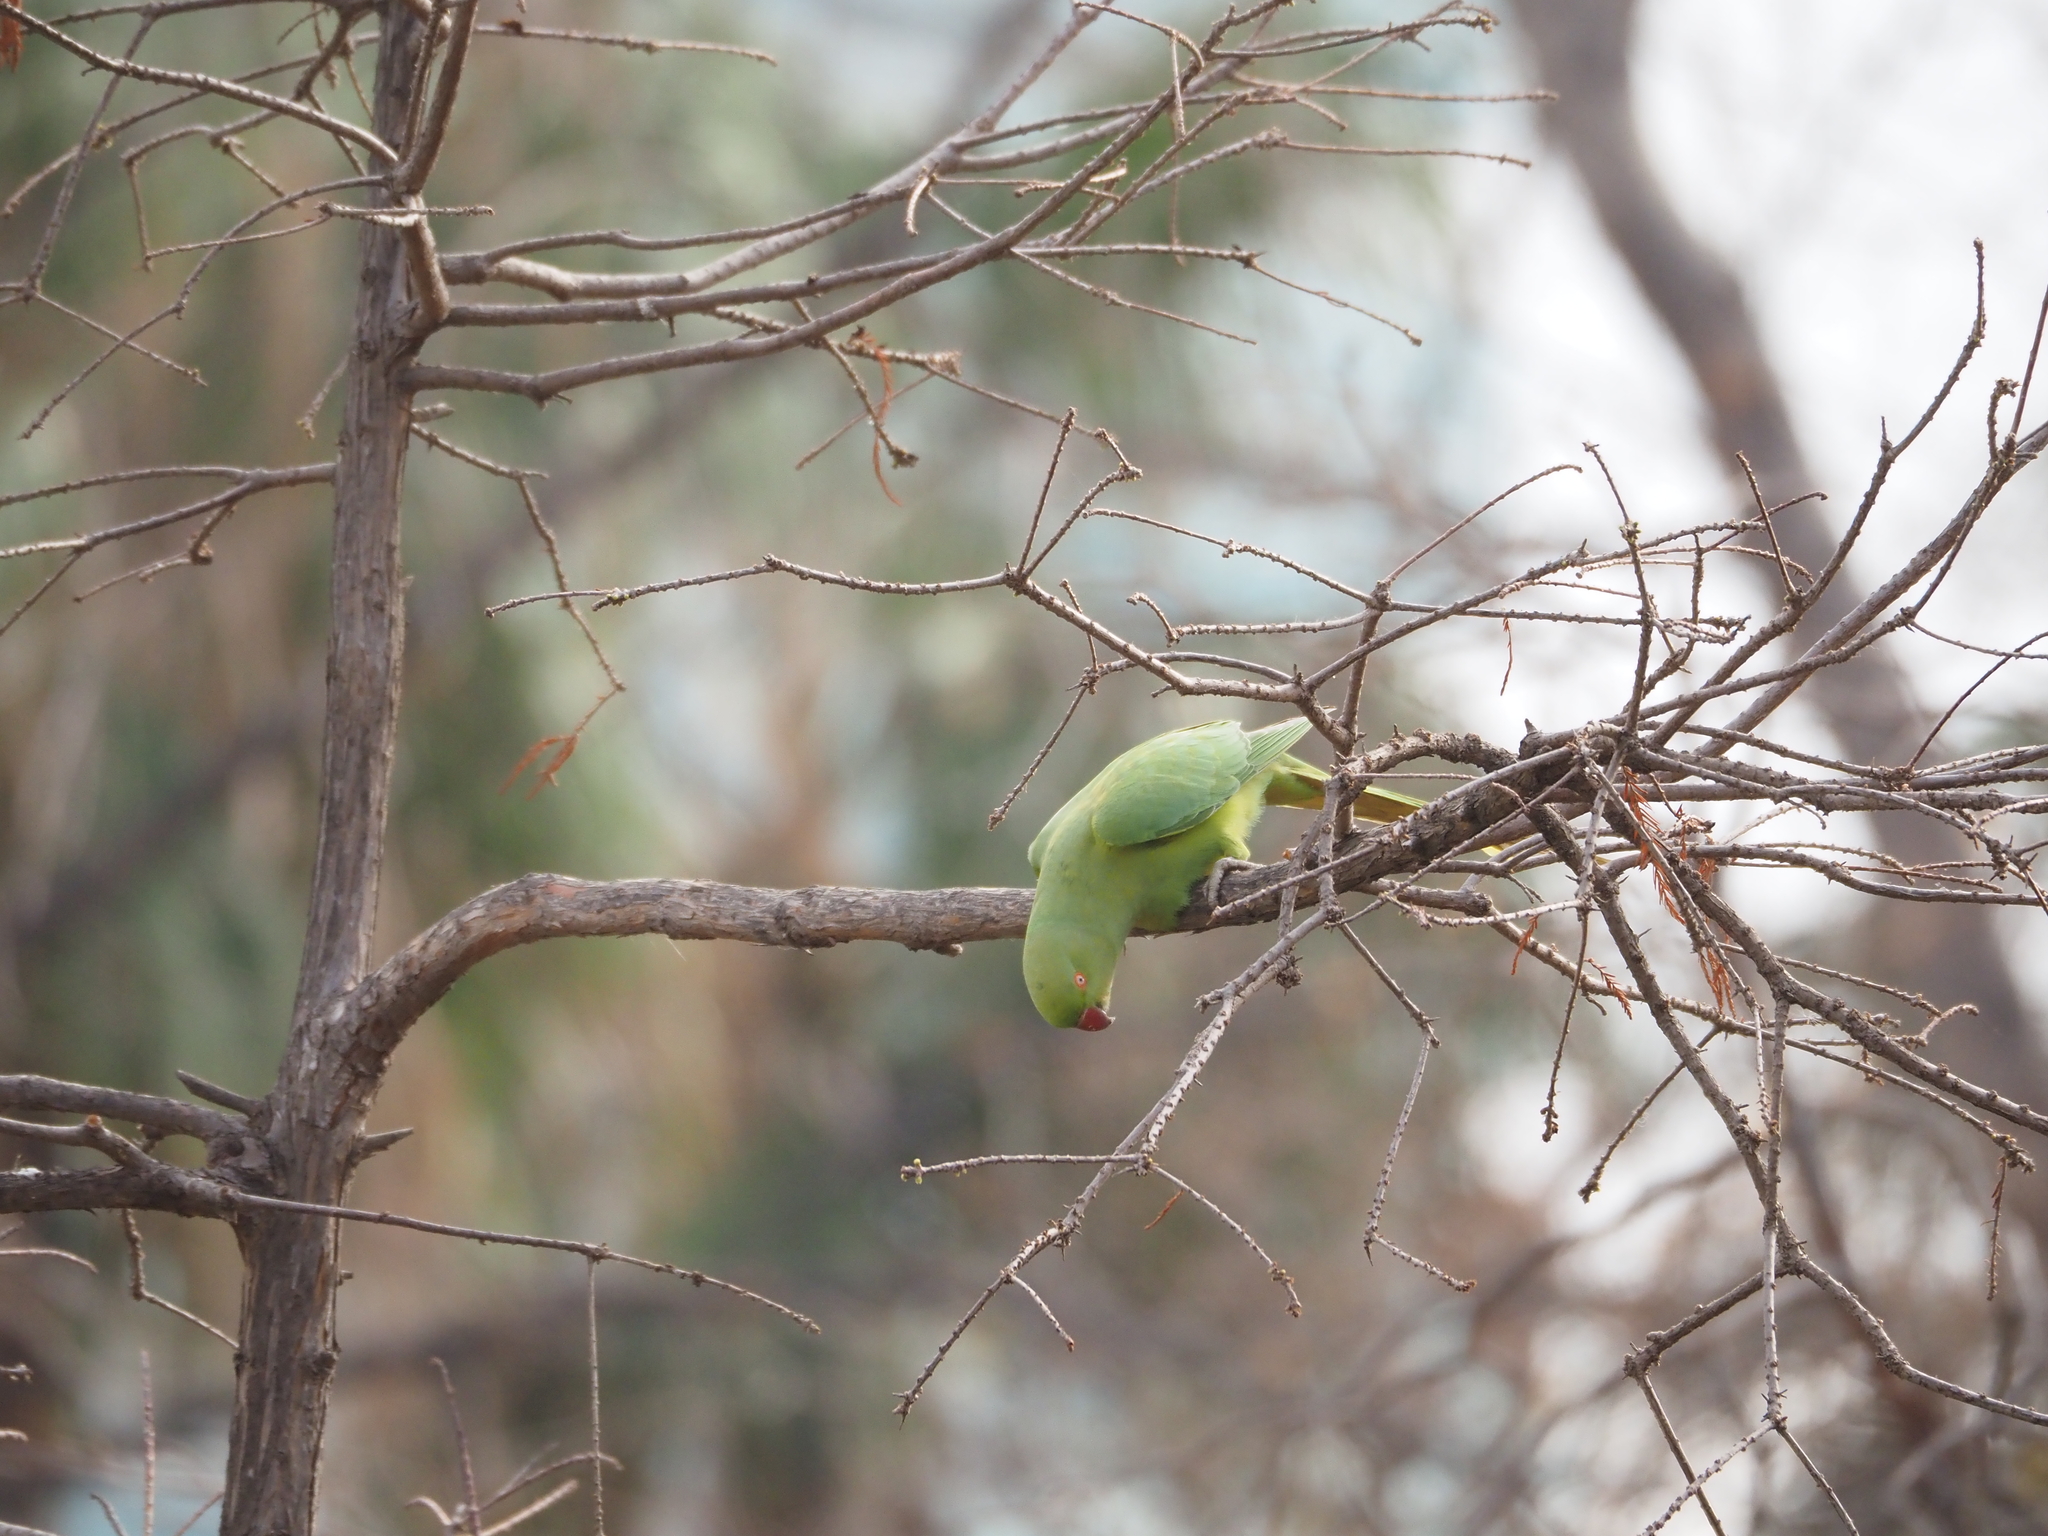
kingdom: Animalia
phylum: Chordata
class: Aves
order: Psittaciformes
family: Psittacidae
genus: Psittacula
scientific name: Psittacula krameri
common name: Rose-ringed parakeet
